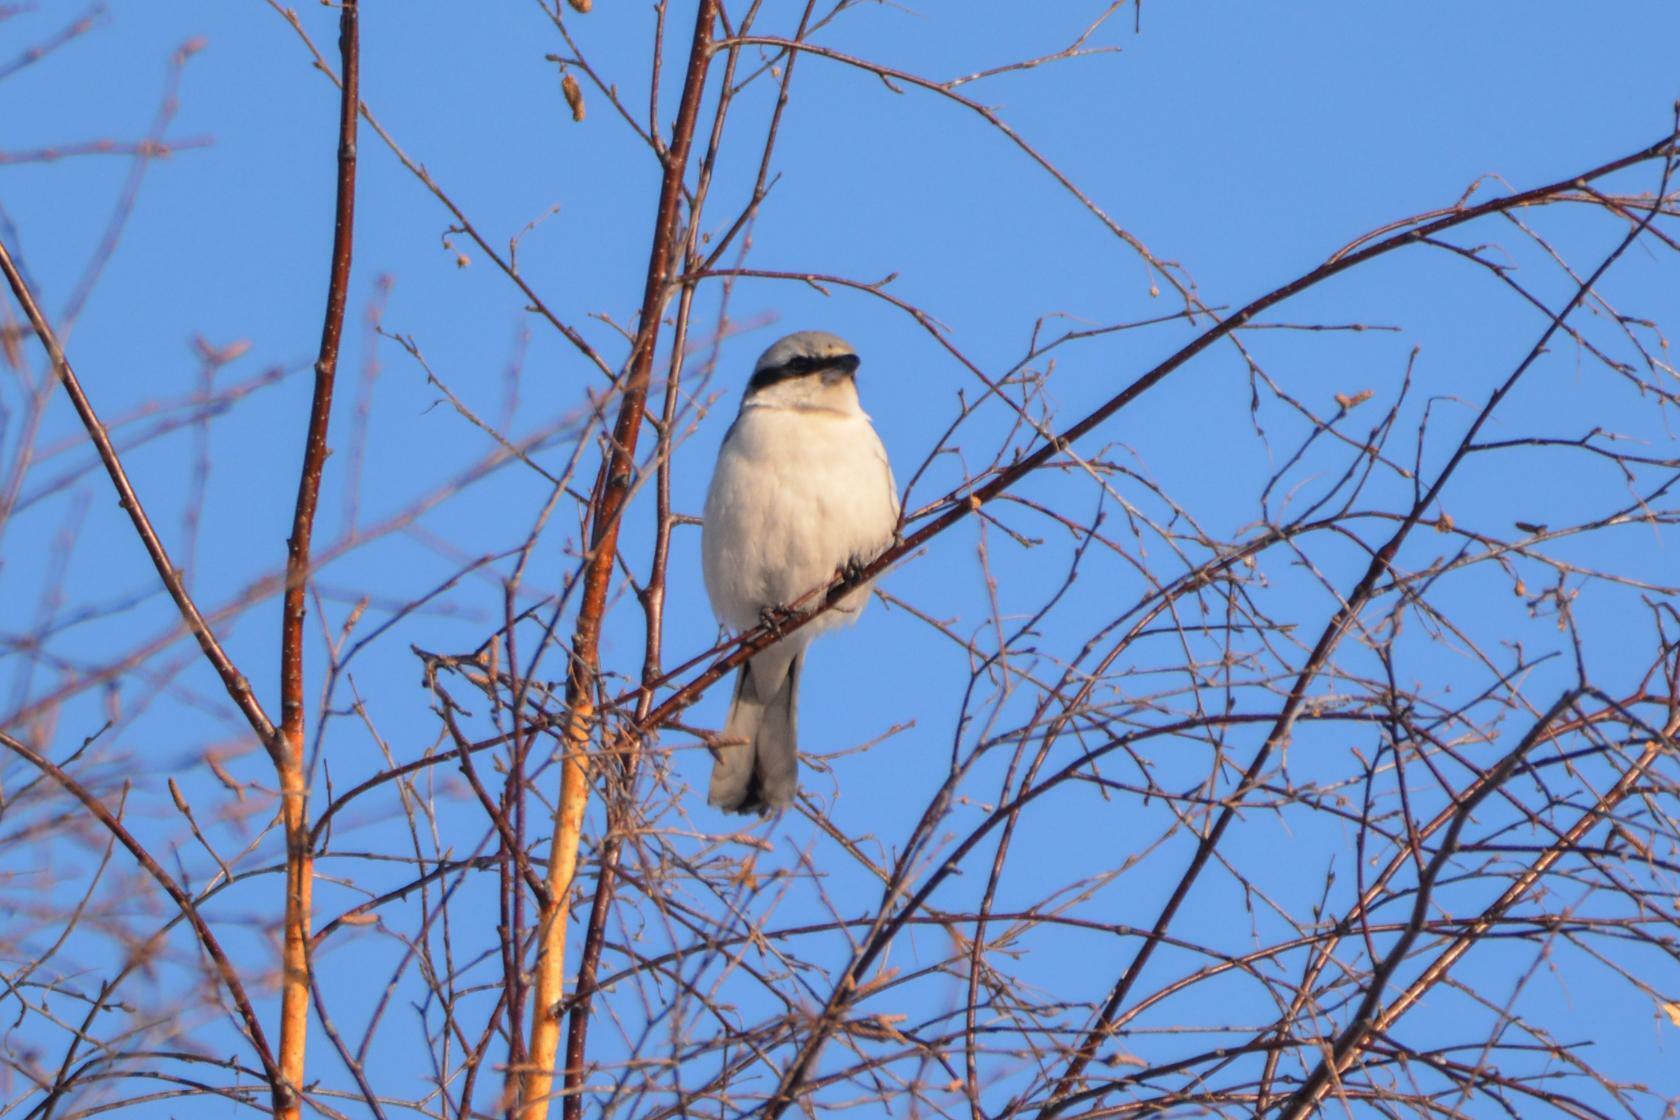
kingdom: Animalia
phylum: Chordata
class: Aves
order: Passeriformes
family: Laniidae
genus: Lanius
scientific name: Lanius excubitor
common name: Great grey shrike
